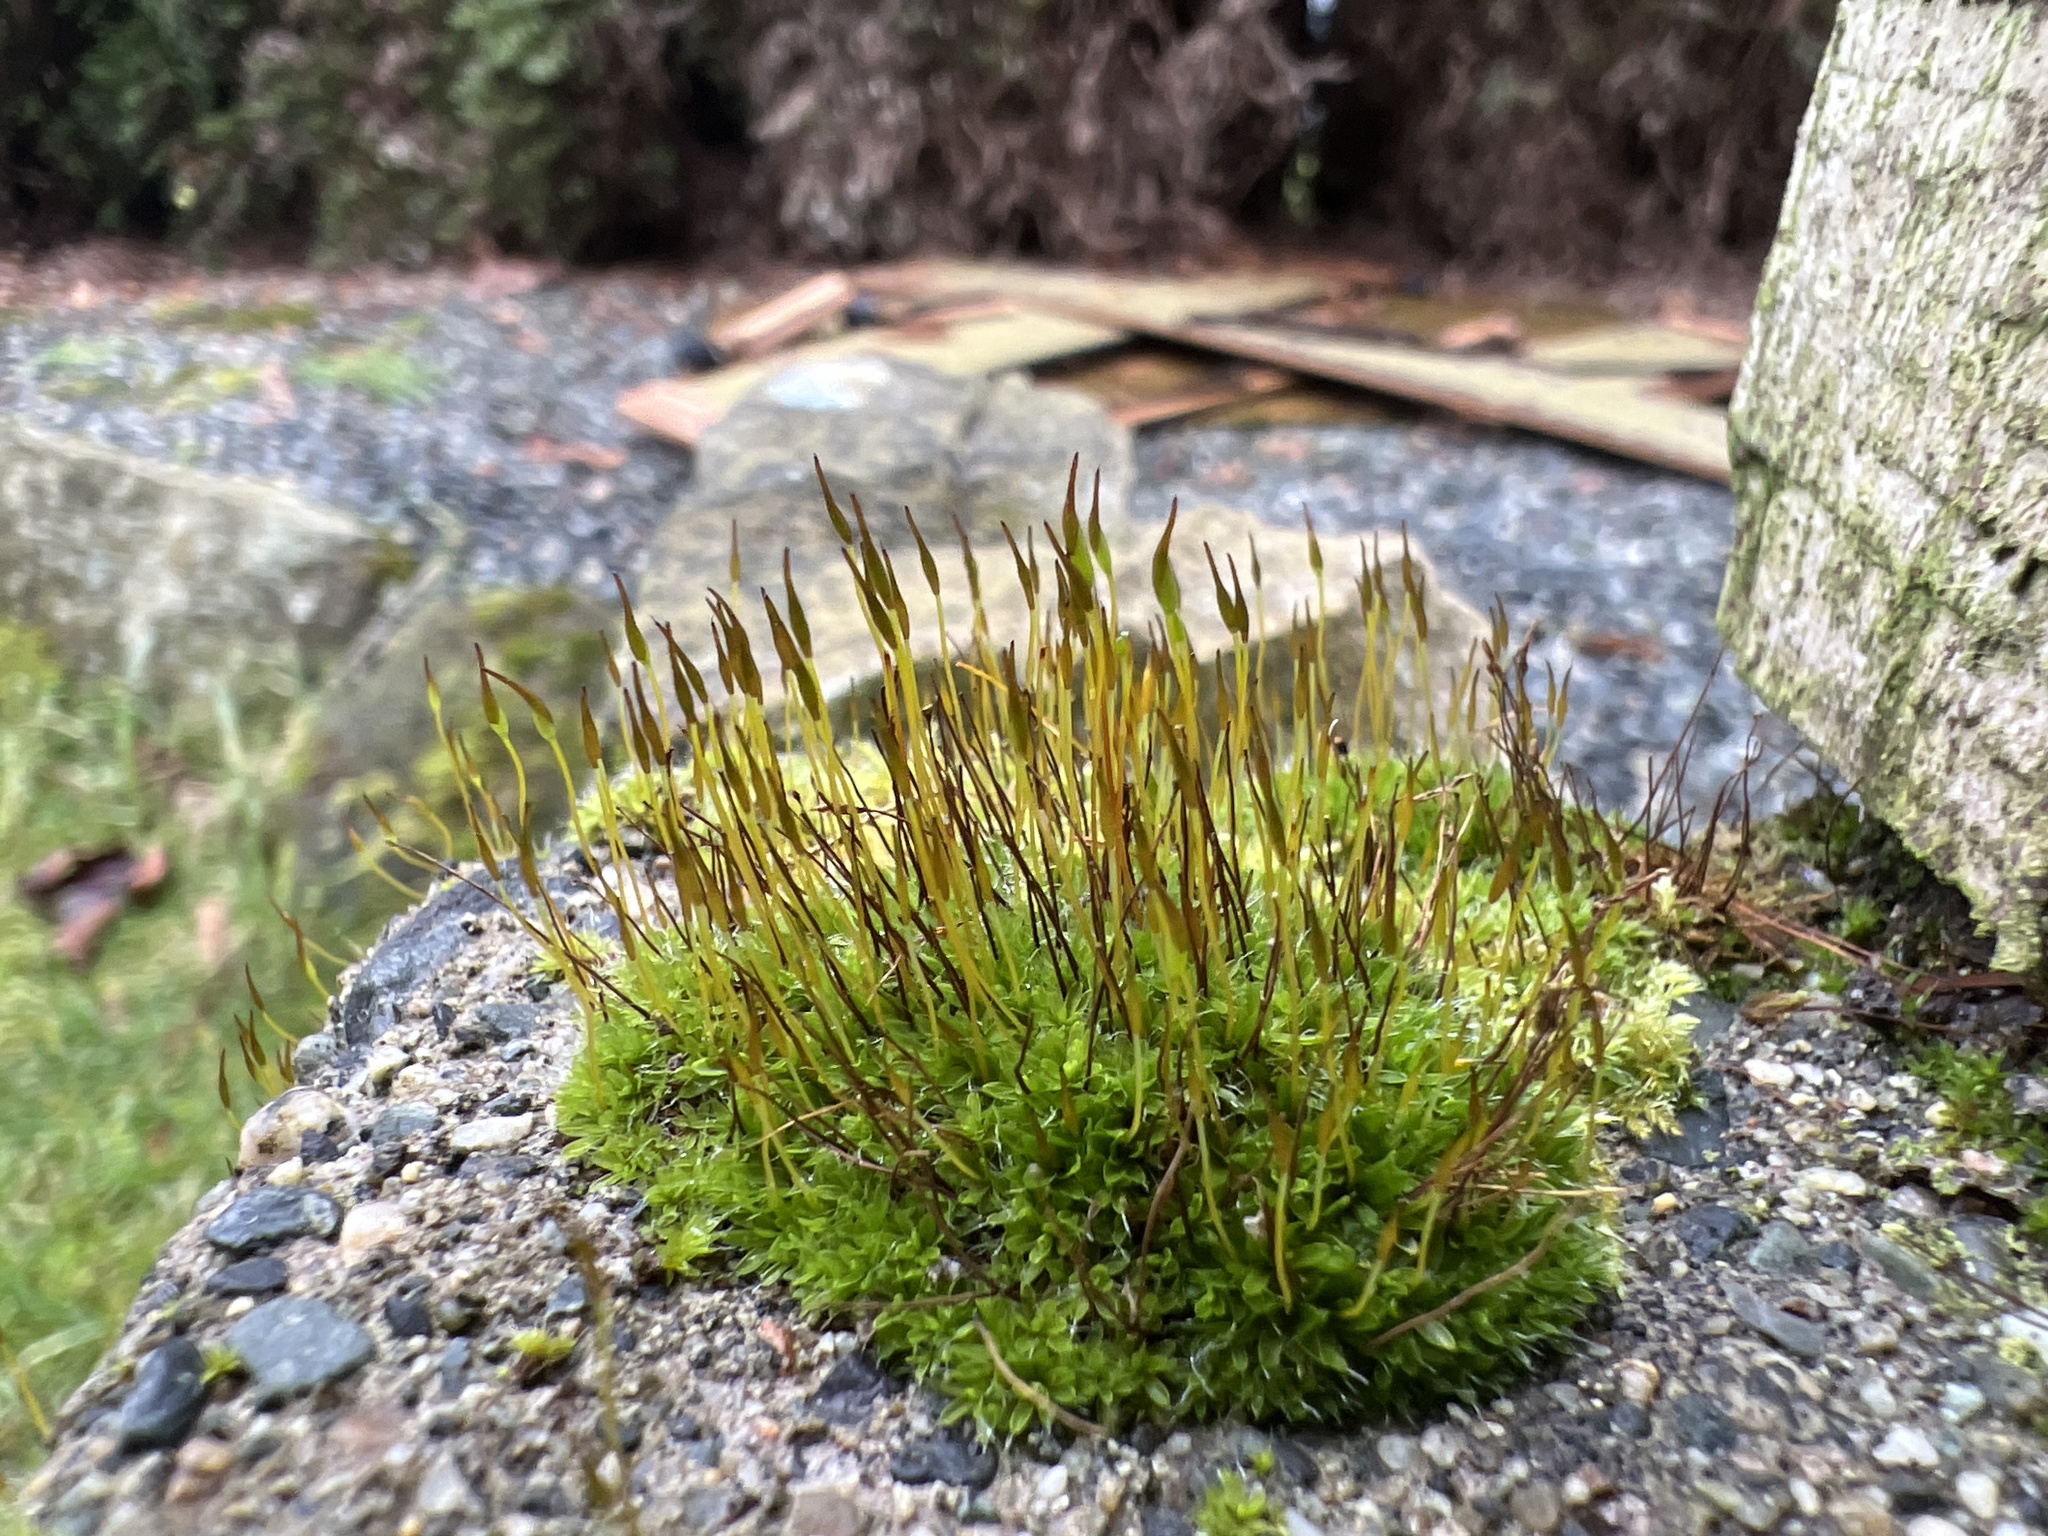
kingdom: Plantae
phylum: Bryophyta
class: Bryopsida
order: Pottiales
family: Pottiaceae
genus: Tortula
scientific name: Tortula muralis
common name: Wall screw-moss
